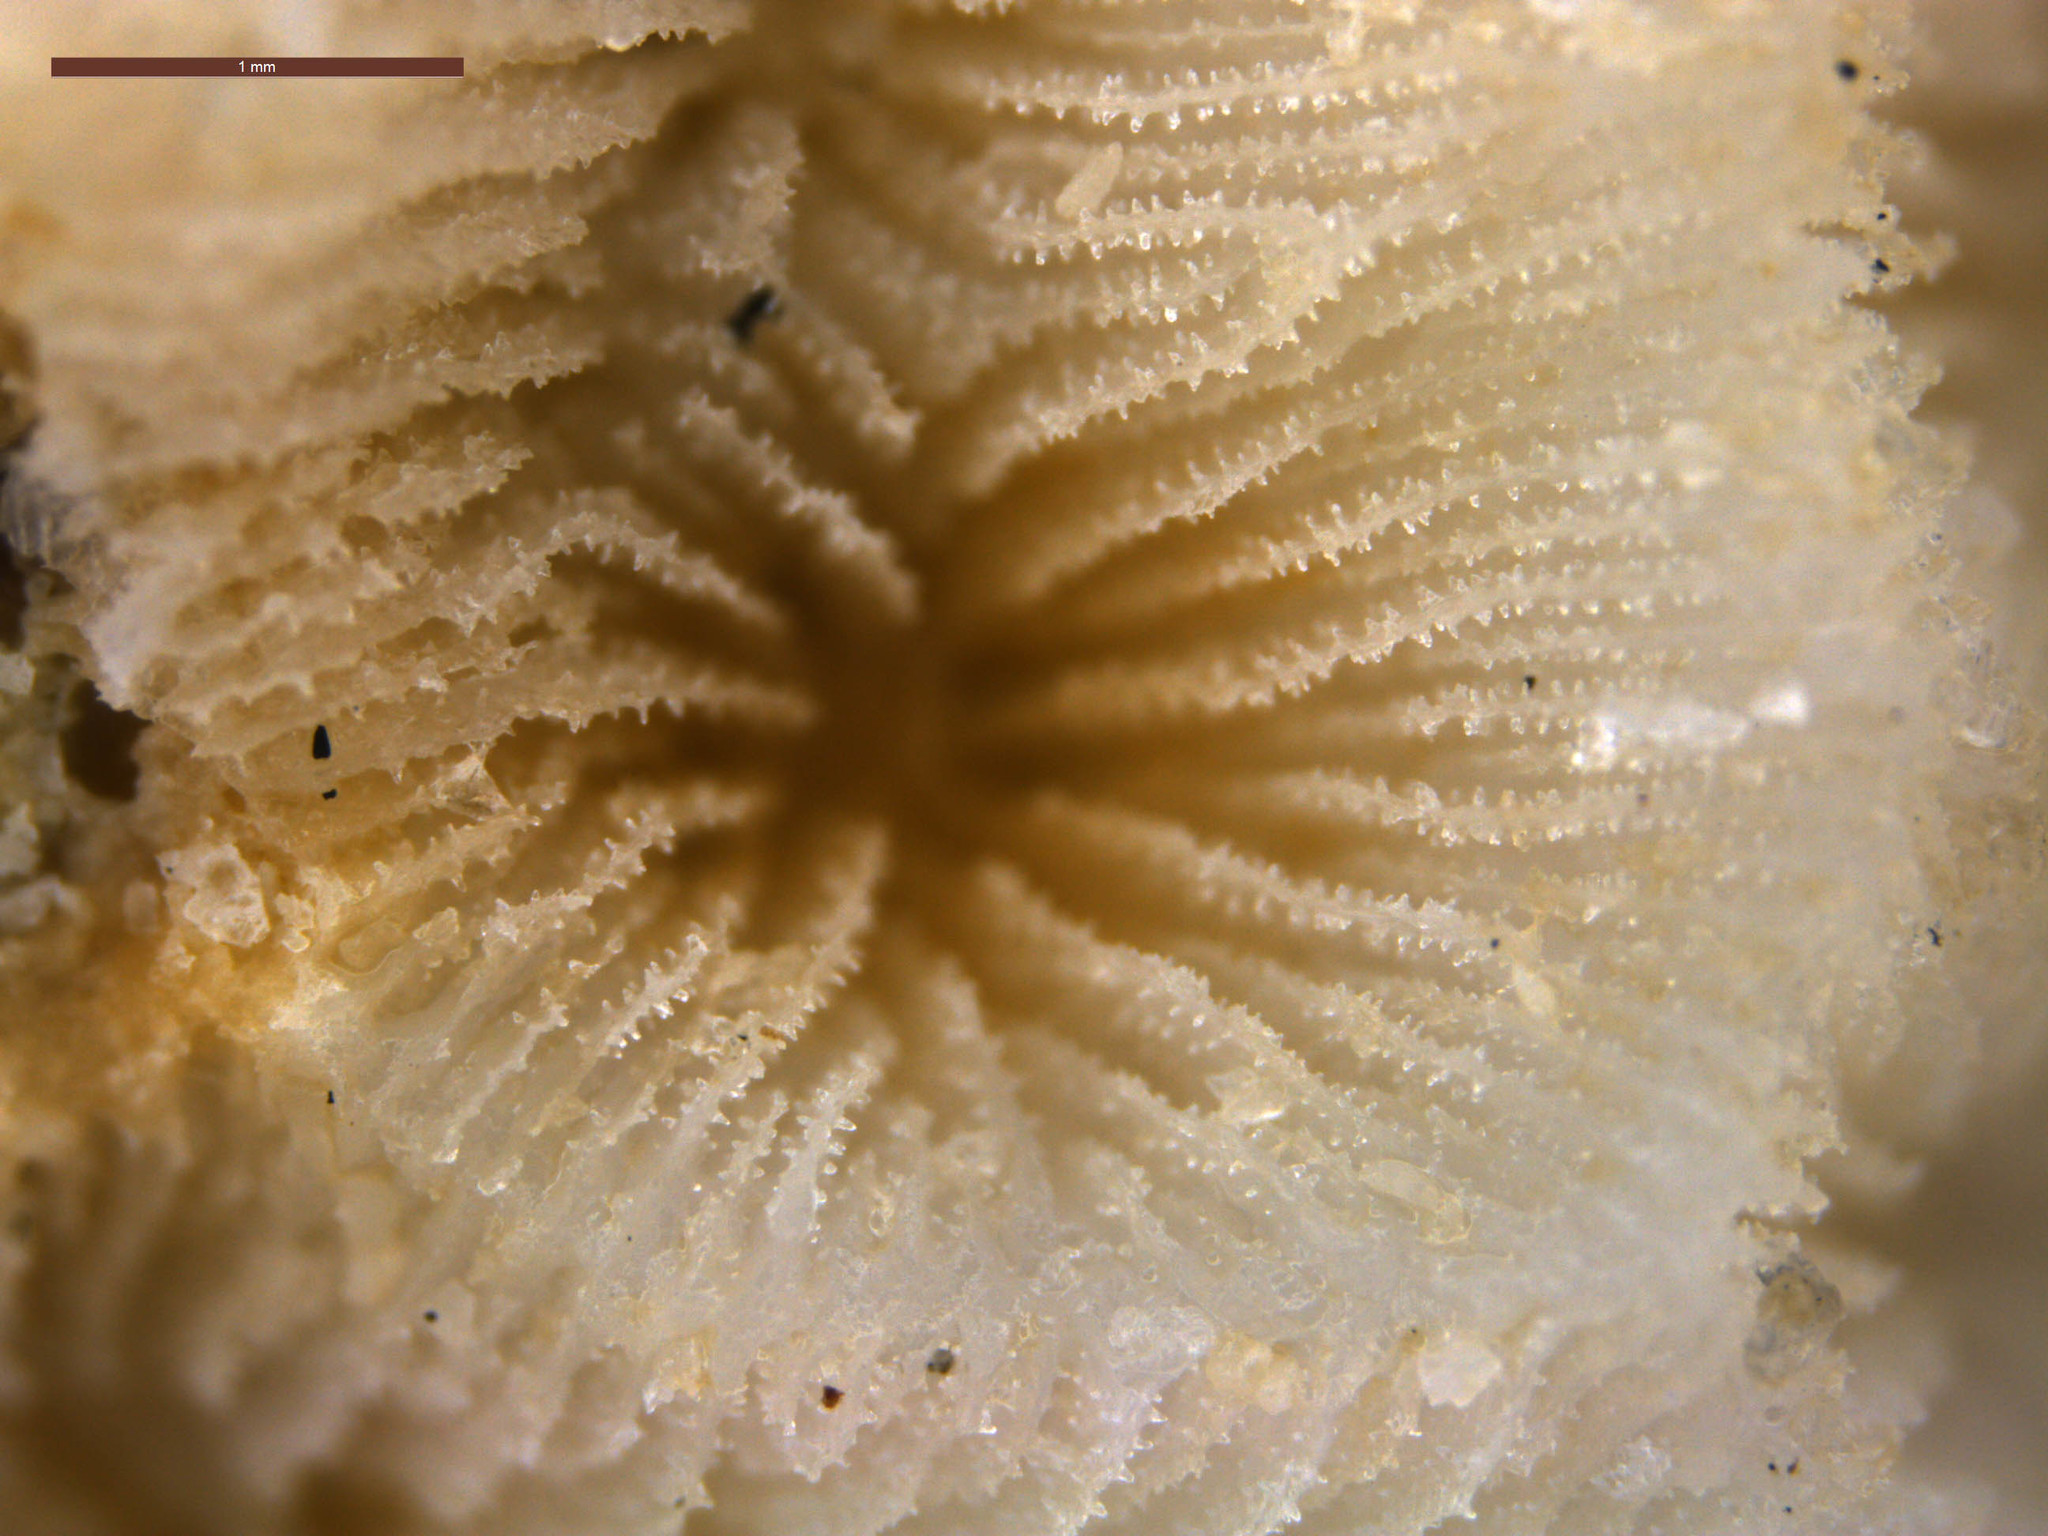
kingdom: Animalia
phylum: Cnidaria
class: Anthozoa
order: Scleractinia
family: Agariciidae
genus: Pavona
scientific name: Pavona varians
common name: Leaf coral
